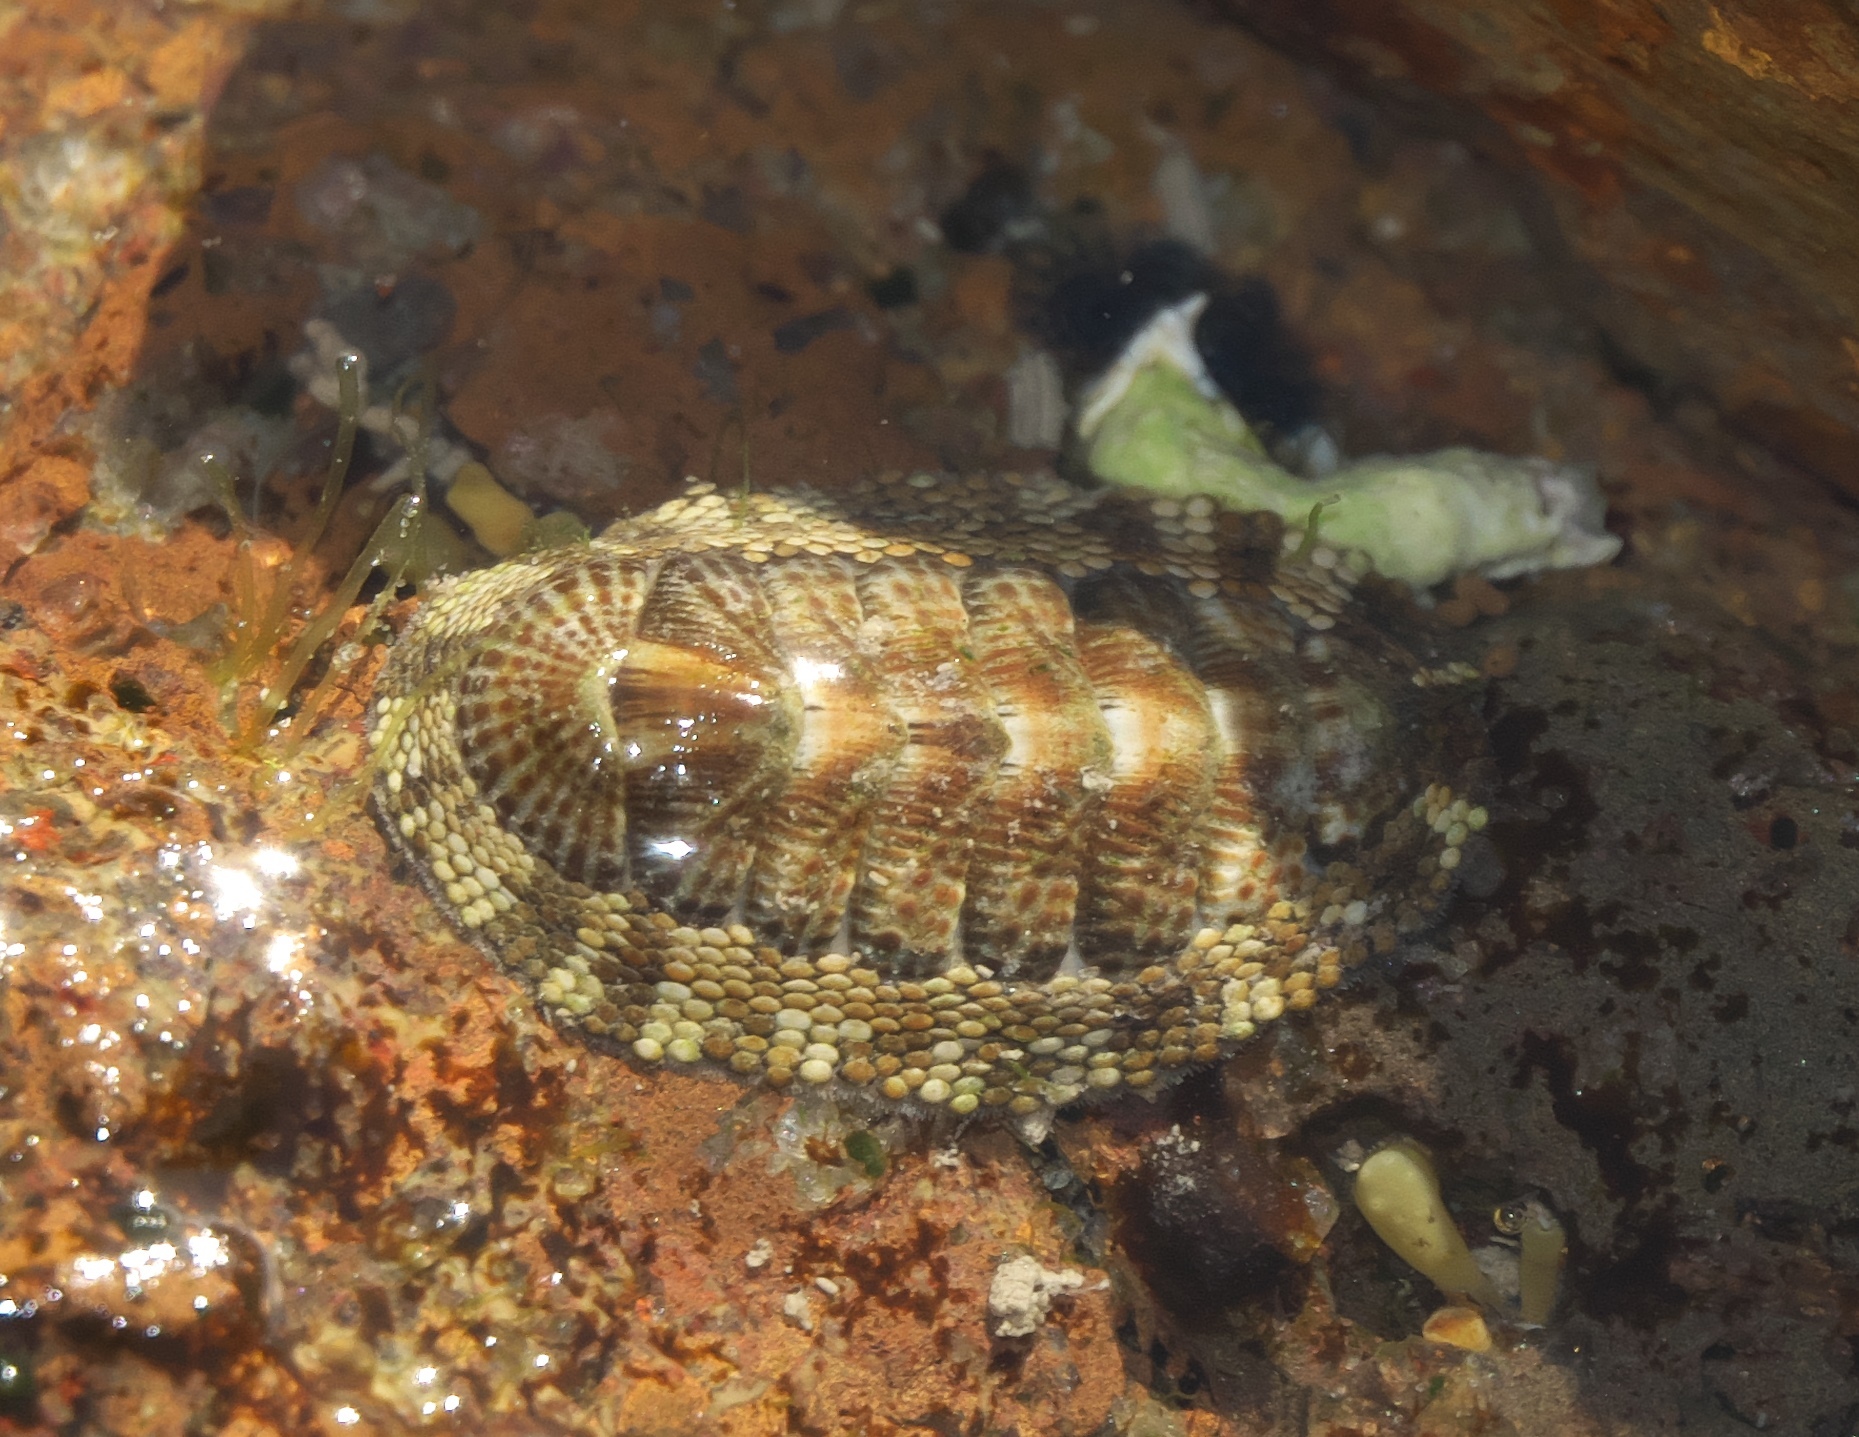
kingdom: Animalia
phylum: Mollusca
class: Polyplacophora
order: Chitonida
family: Chitonidae
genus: Sypharochiton
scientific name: Sypharochiton pelliserpentis
